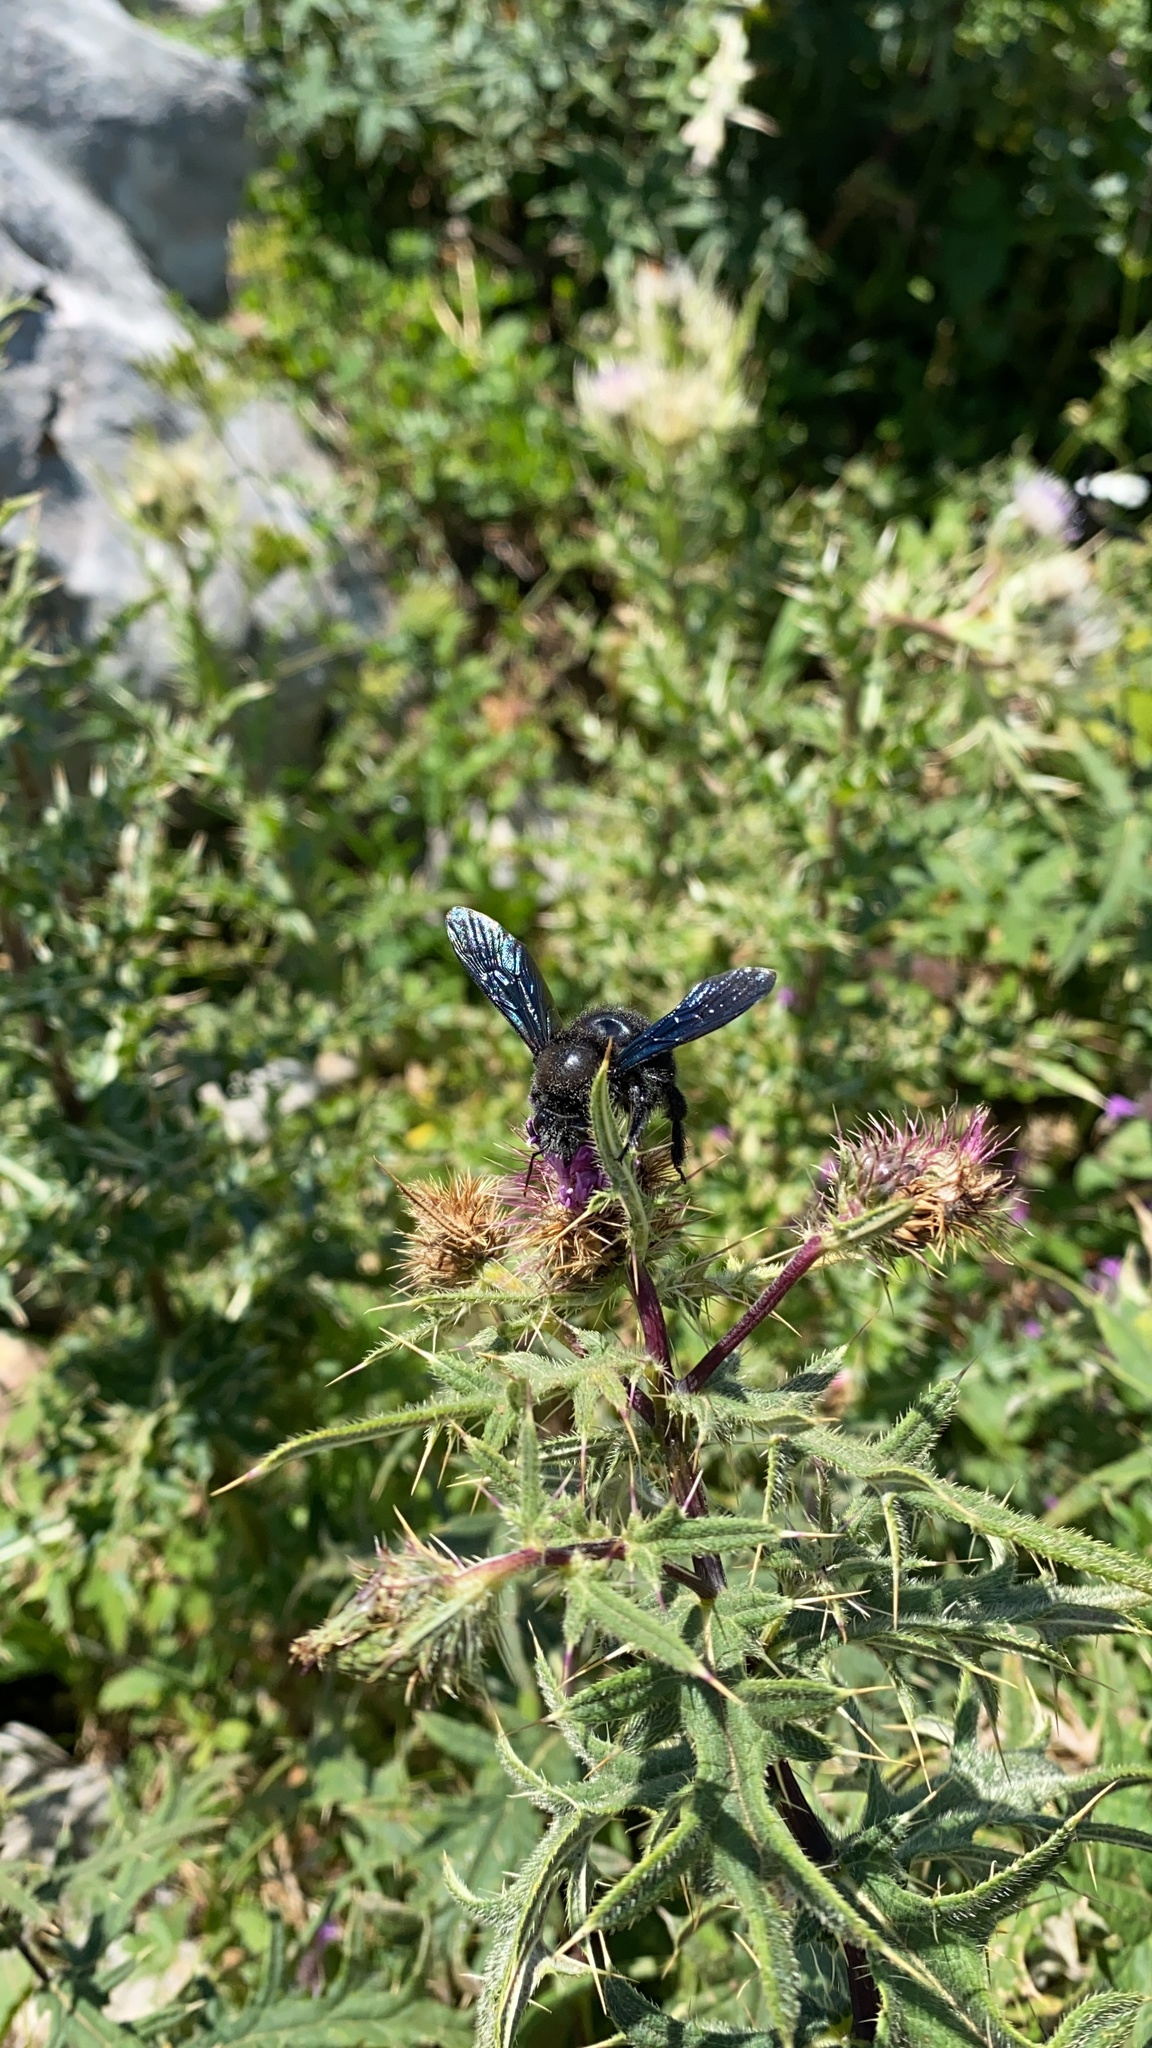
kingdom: Animalia
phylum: Arthropoda
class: Insecta
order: Hymenoptera
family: Apidae
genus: Xylocopa
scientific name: Xylocopa violacea
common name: Violet carpenter bee
